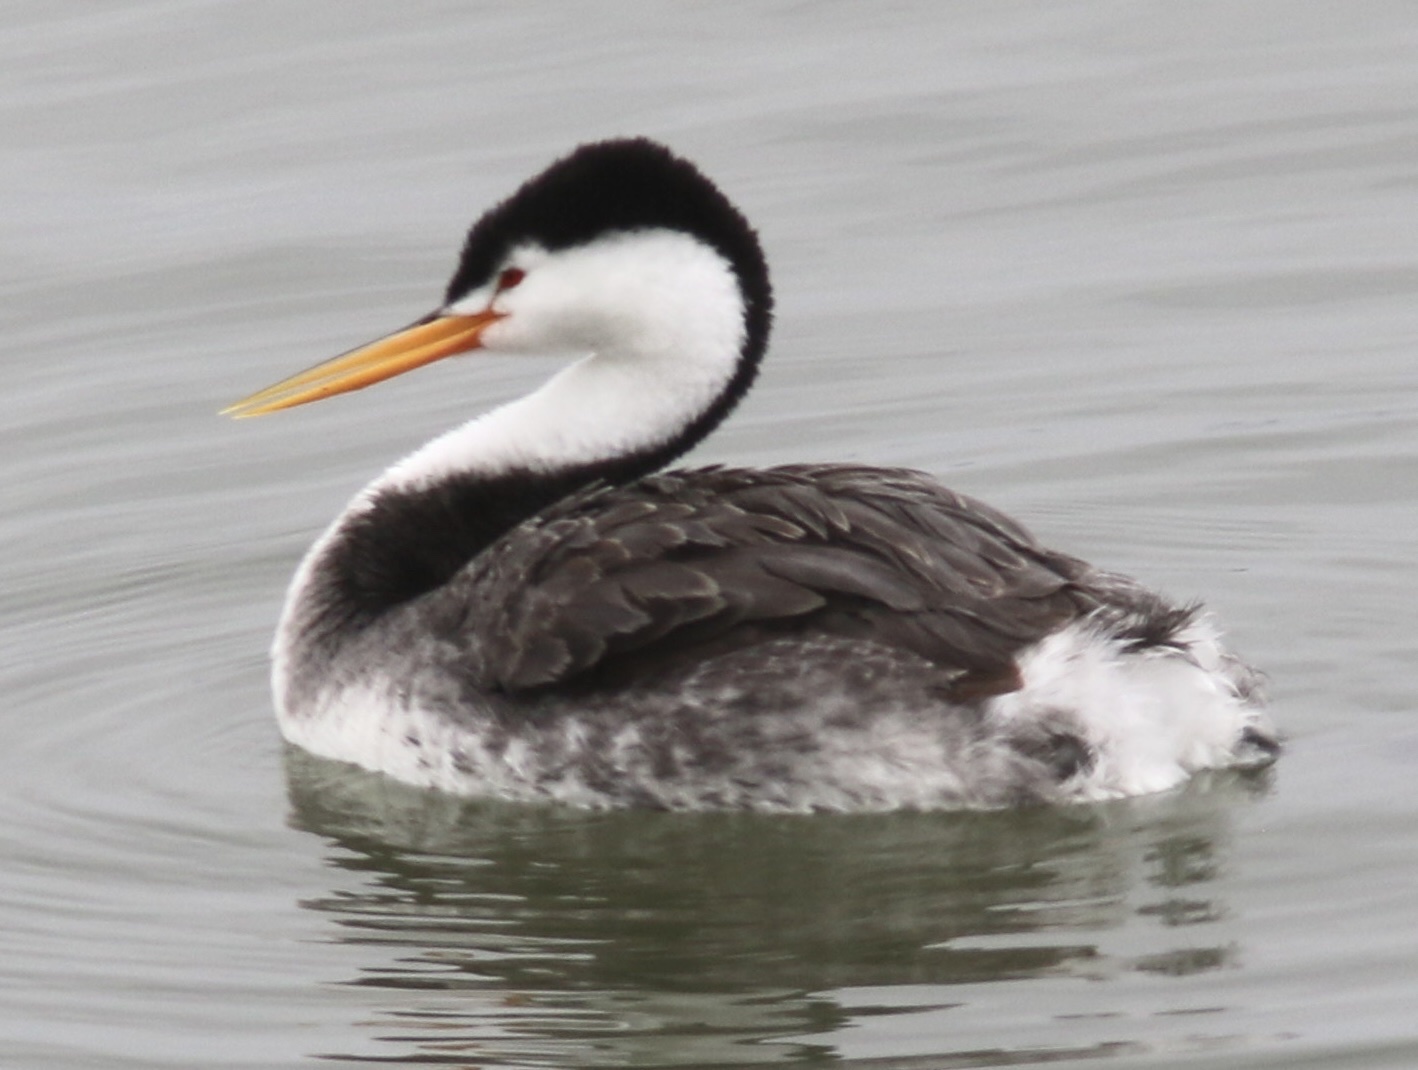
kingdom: Animalia
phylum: Chordata
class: Aves
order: Podicipediformes
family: Podicipedidae
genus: Aechmophorus
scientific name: Aechmophorus clarkii
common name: Clark's grebe
